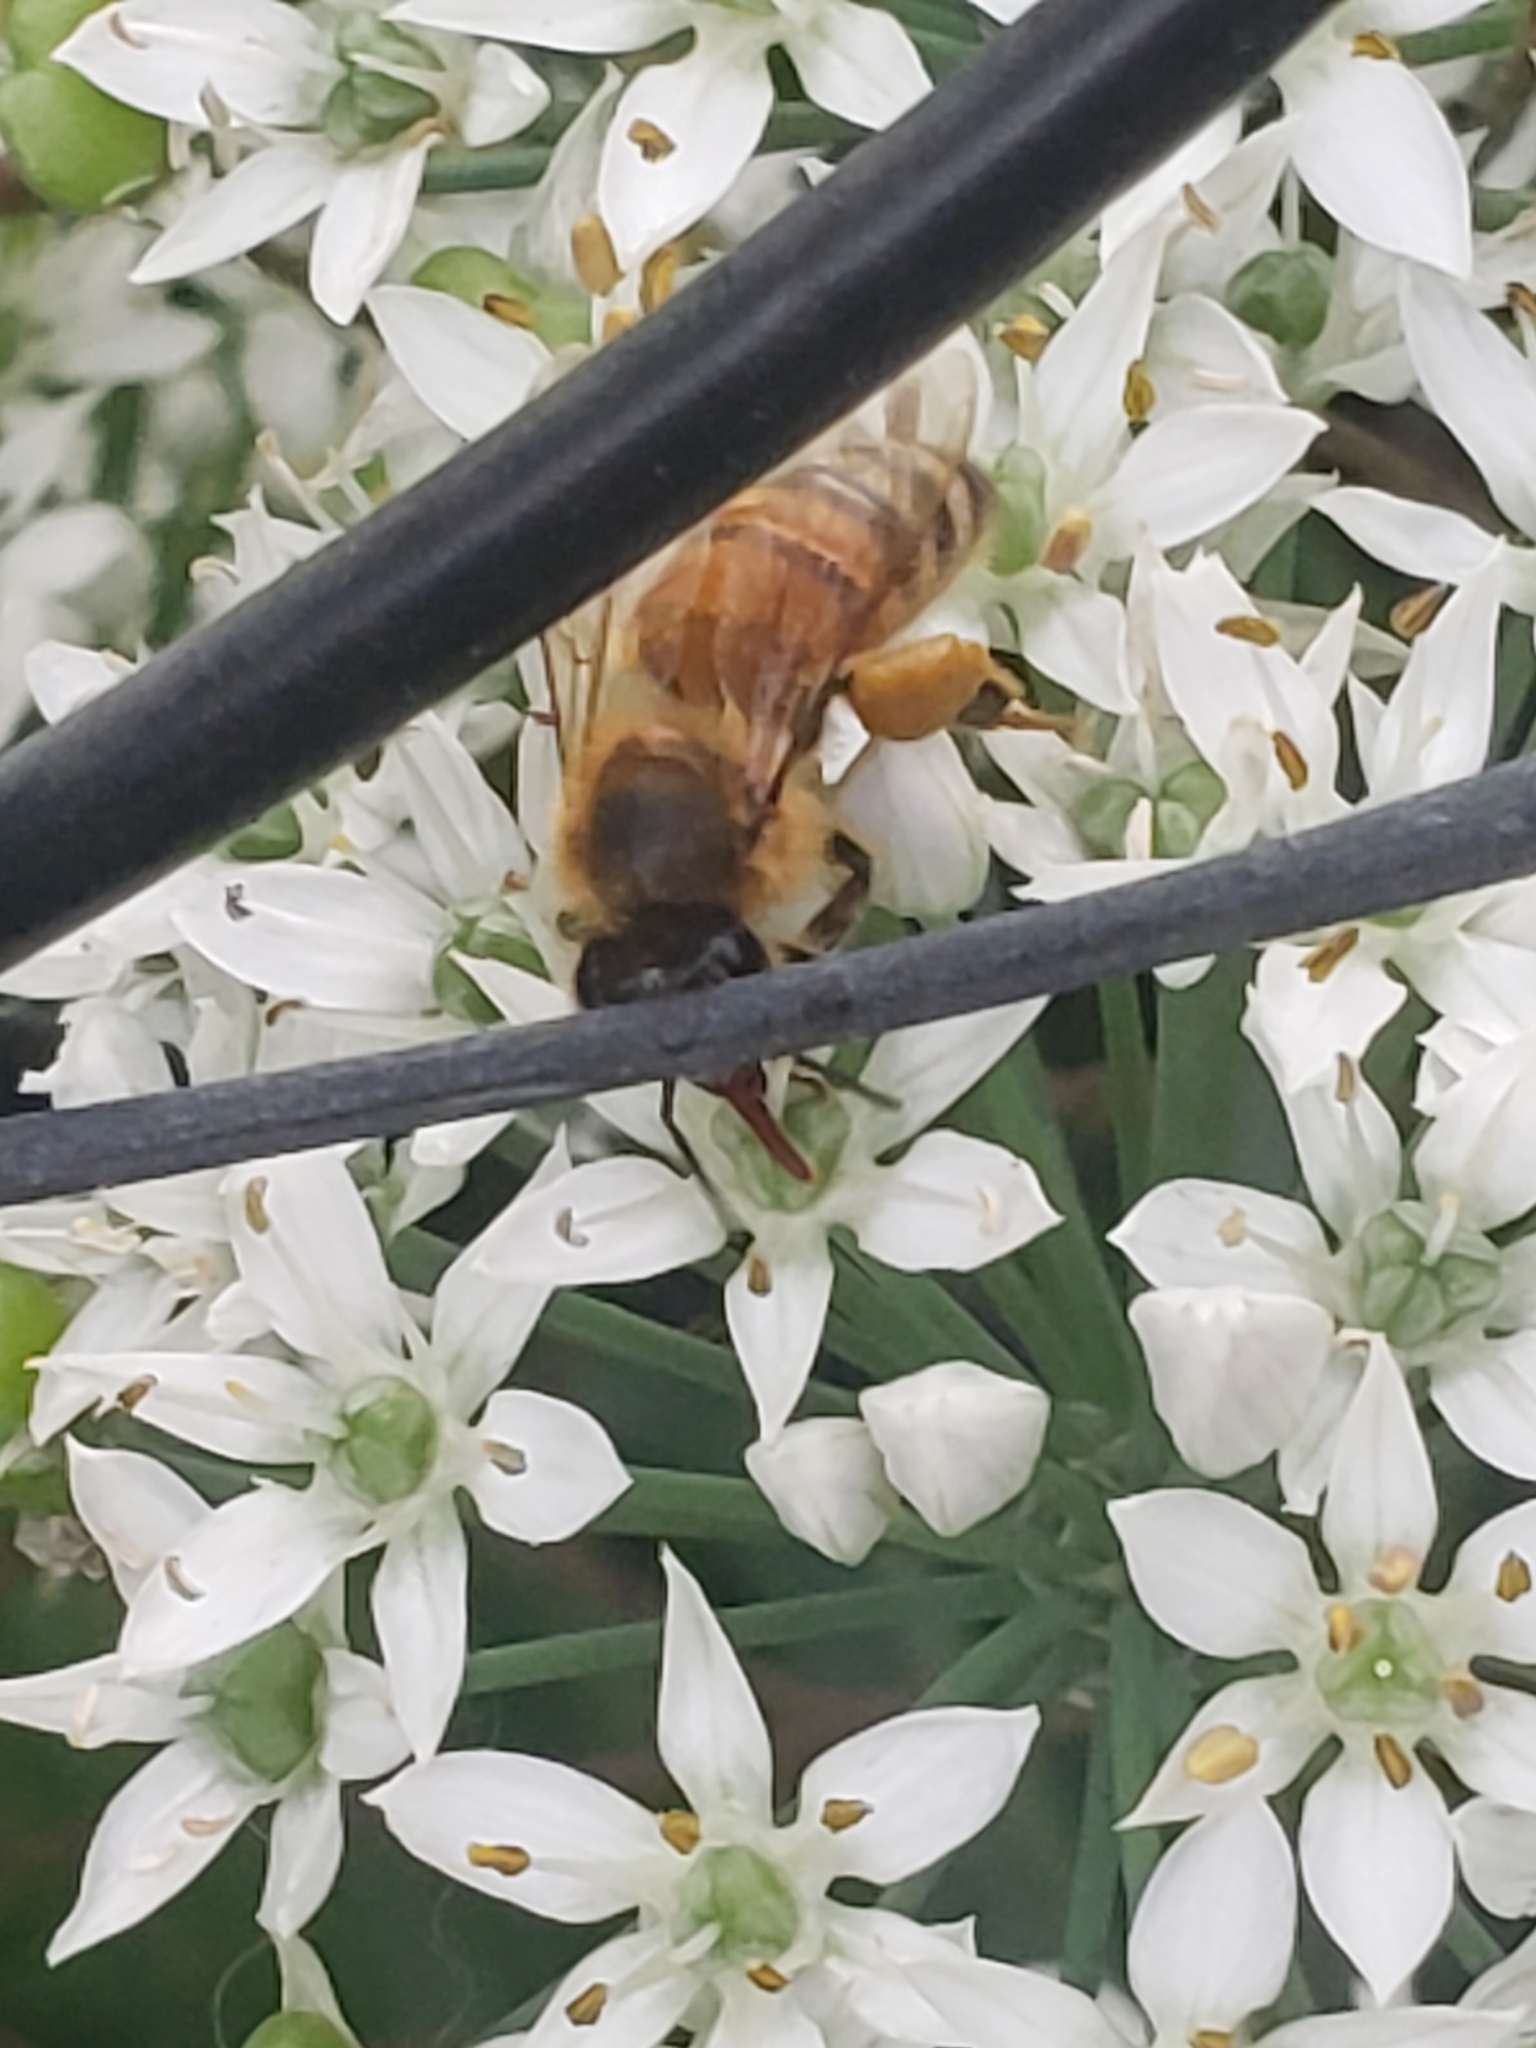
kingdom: Animalia
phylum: Arthropoda
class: Insecta
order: Hymenoptera
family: Apidae
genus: Apis
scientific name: Apis mellifera
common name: Honey bee
